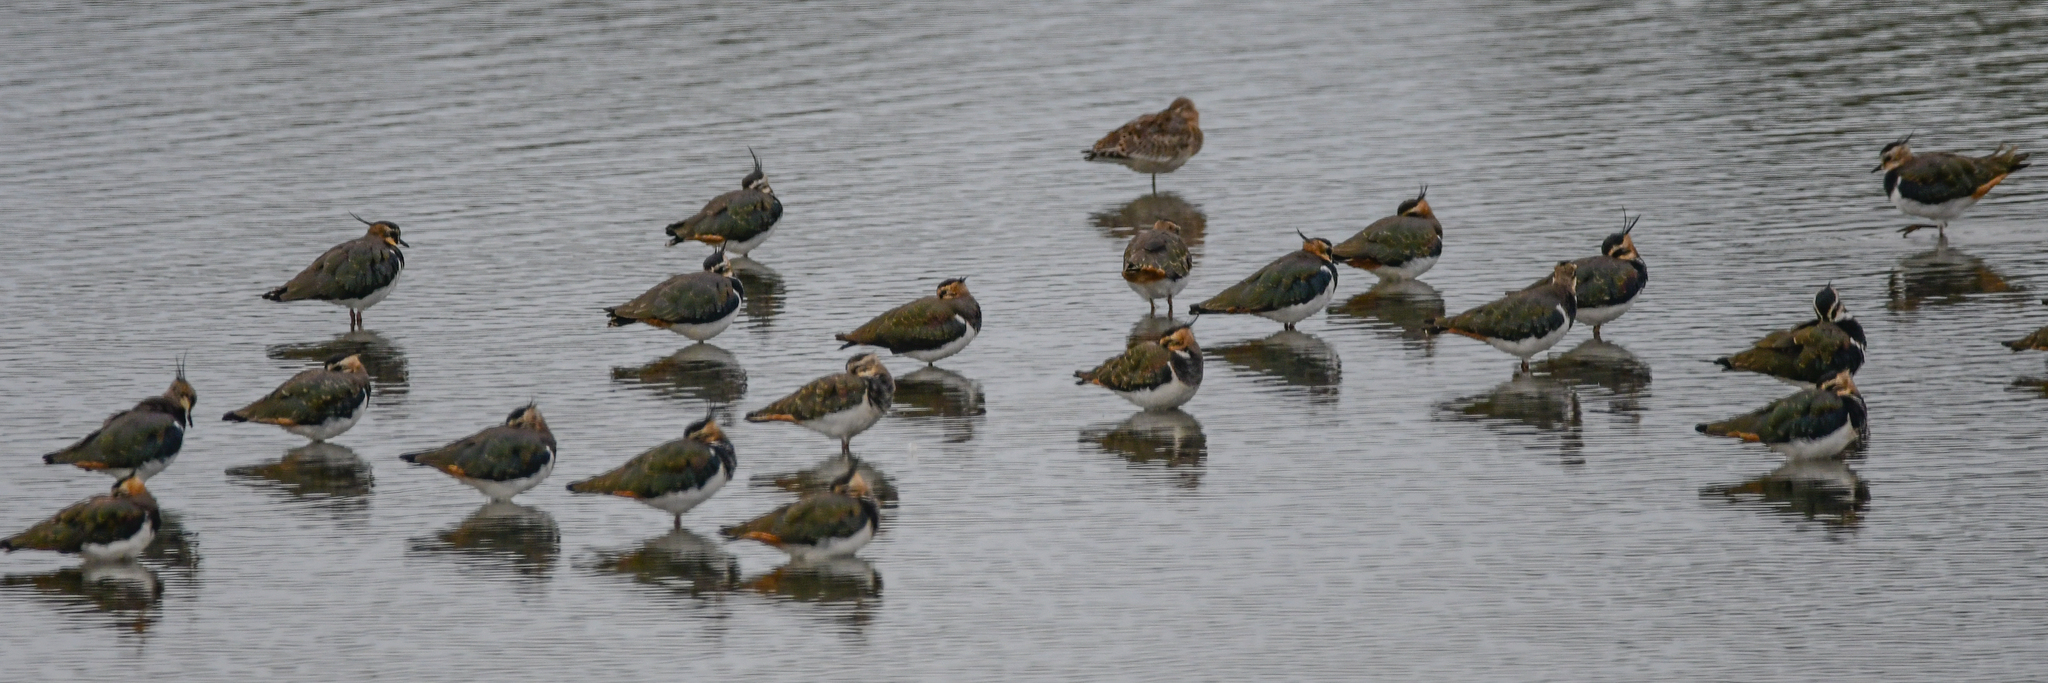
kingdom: Animalia
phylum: Chordata
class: Aves
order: Charadriiformes
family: Charadriidae
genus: Vanellus
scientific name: Vanellus vanellus
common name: Northern lapwing
